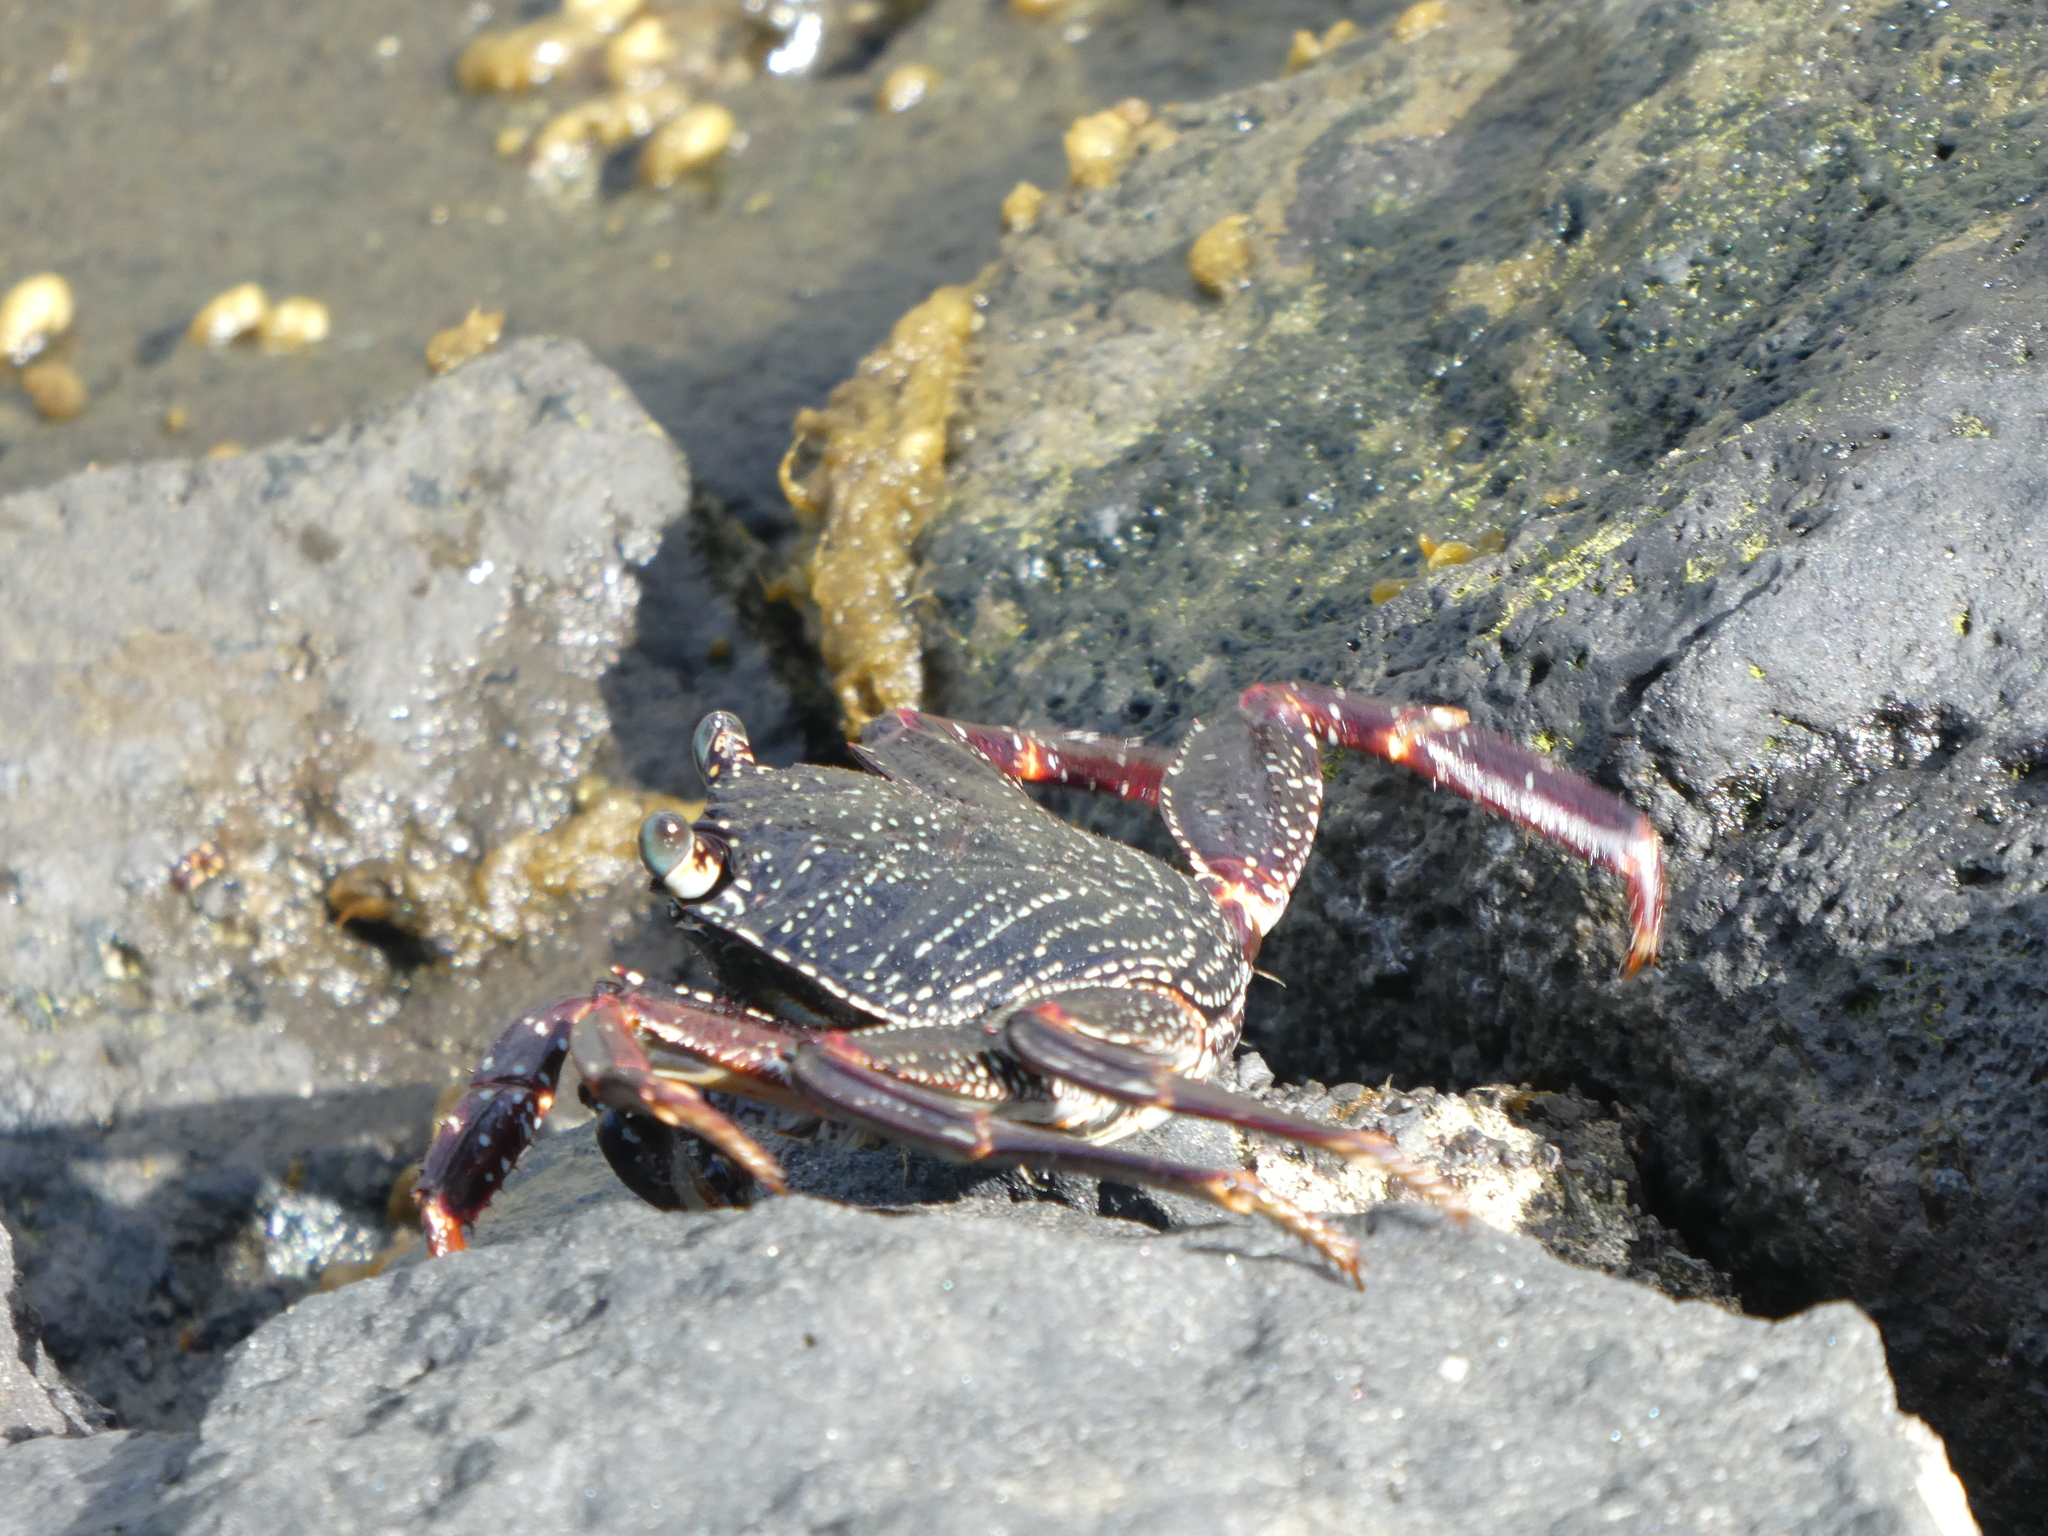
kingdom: Animalia
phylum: Arthropoda
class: Malacostraca
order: Decapoda
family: Grapsidae
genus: Grapsus
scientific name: Grapsus tenuicrustatus
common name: Natal lightfoot crab
